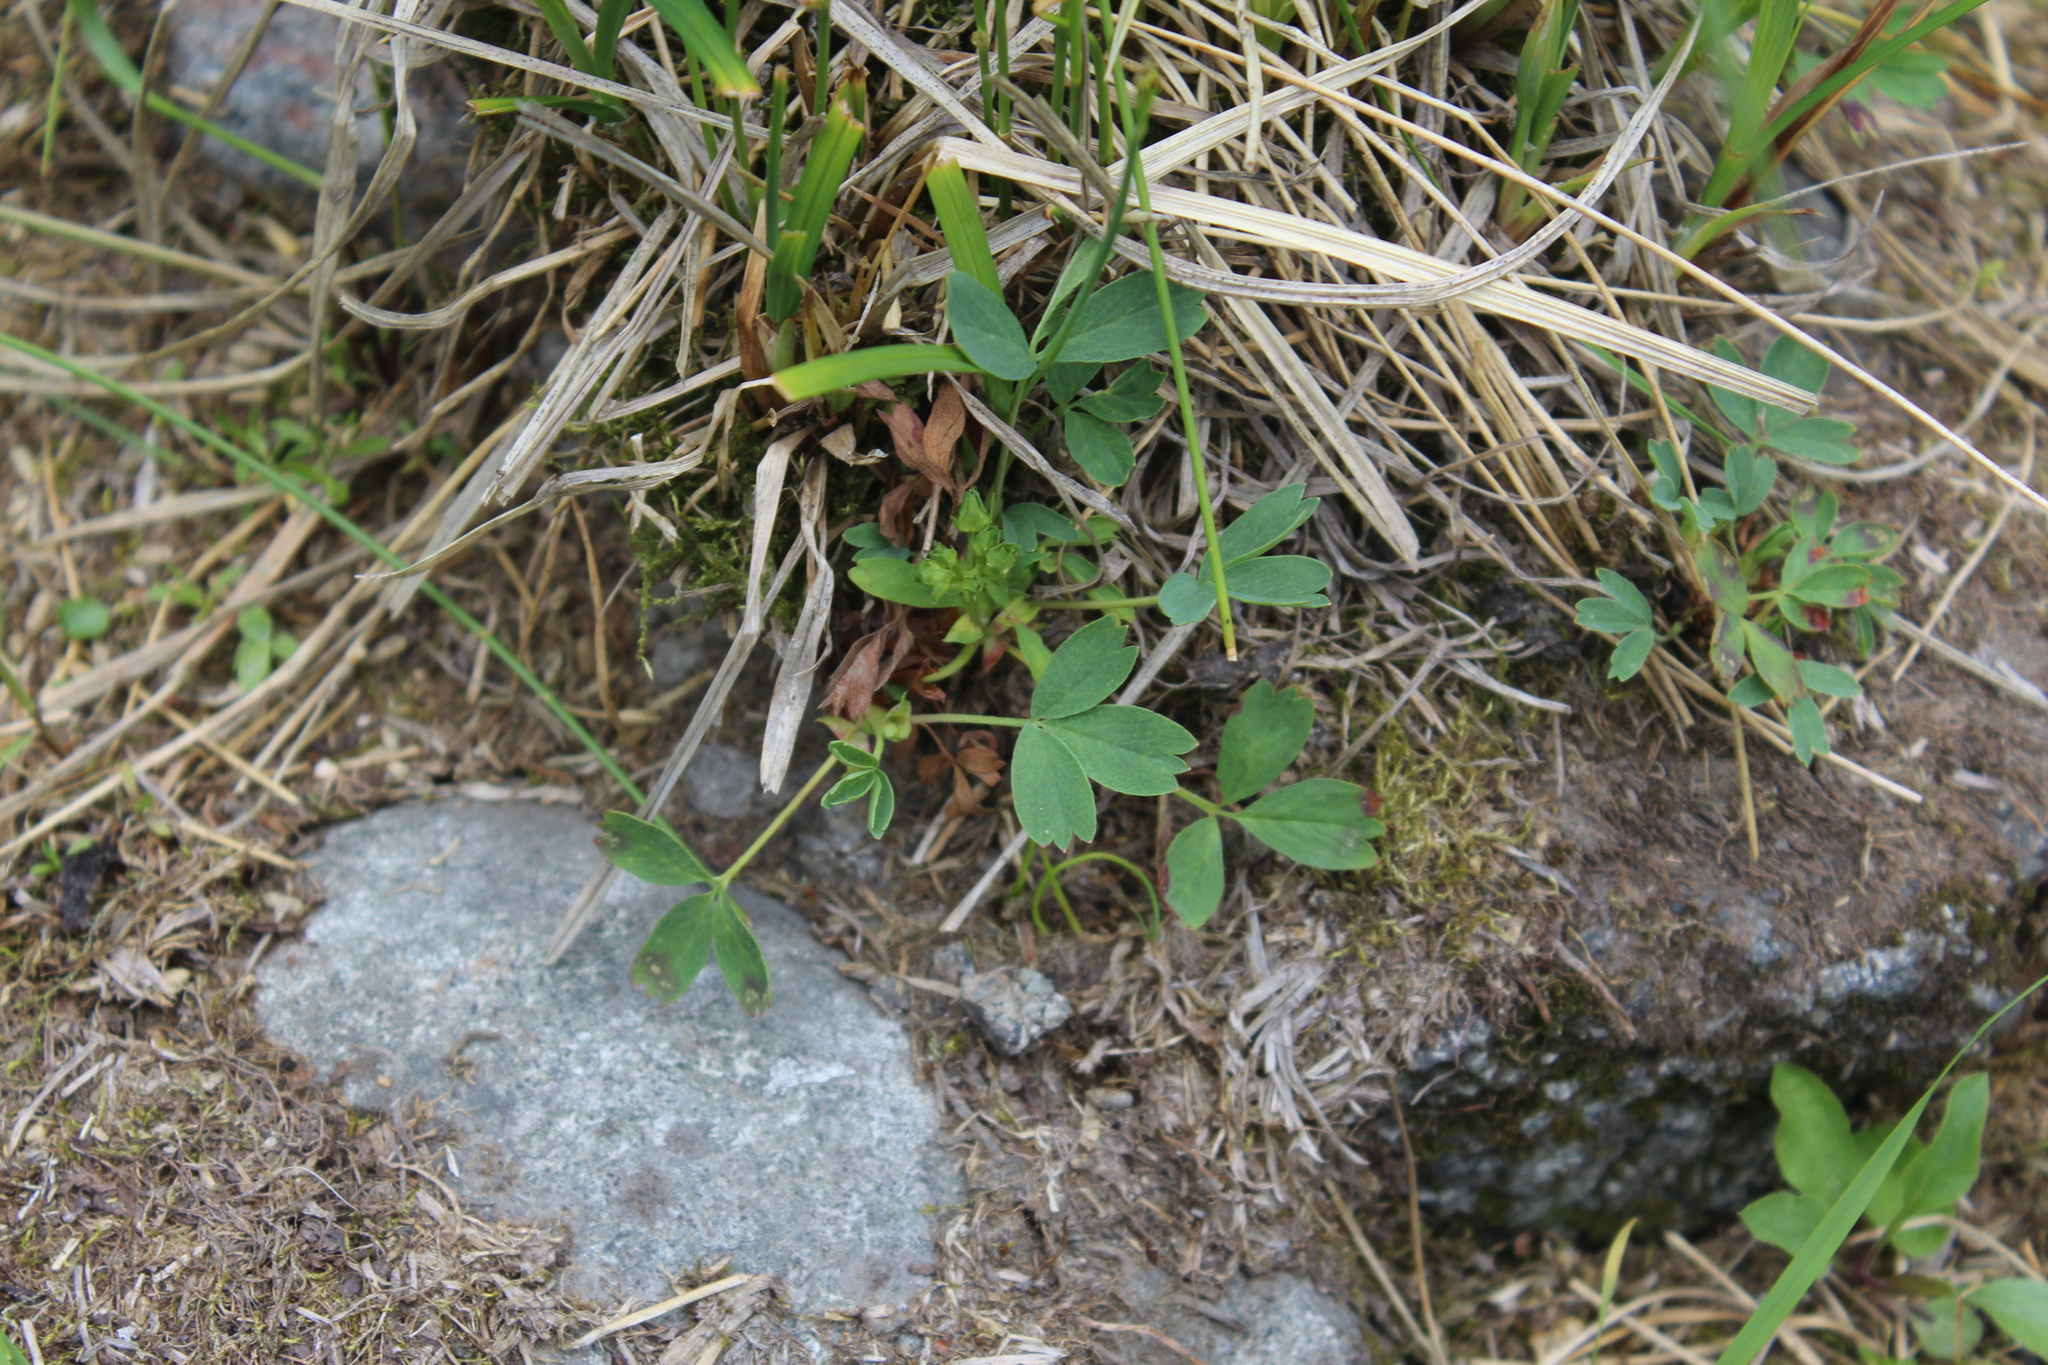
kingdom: Plantae
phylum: Tracheophyta
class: Magnoliopsida
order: Rosales
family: Rosaceae
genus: Sibbaldia
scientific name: Sibbaldia procumbens
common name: Creeping sibbaldia
